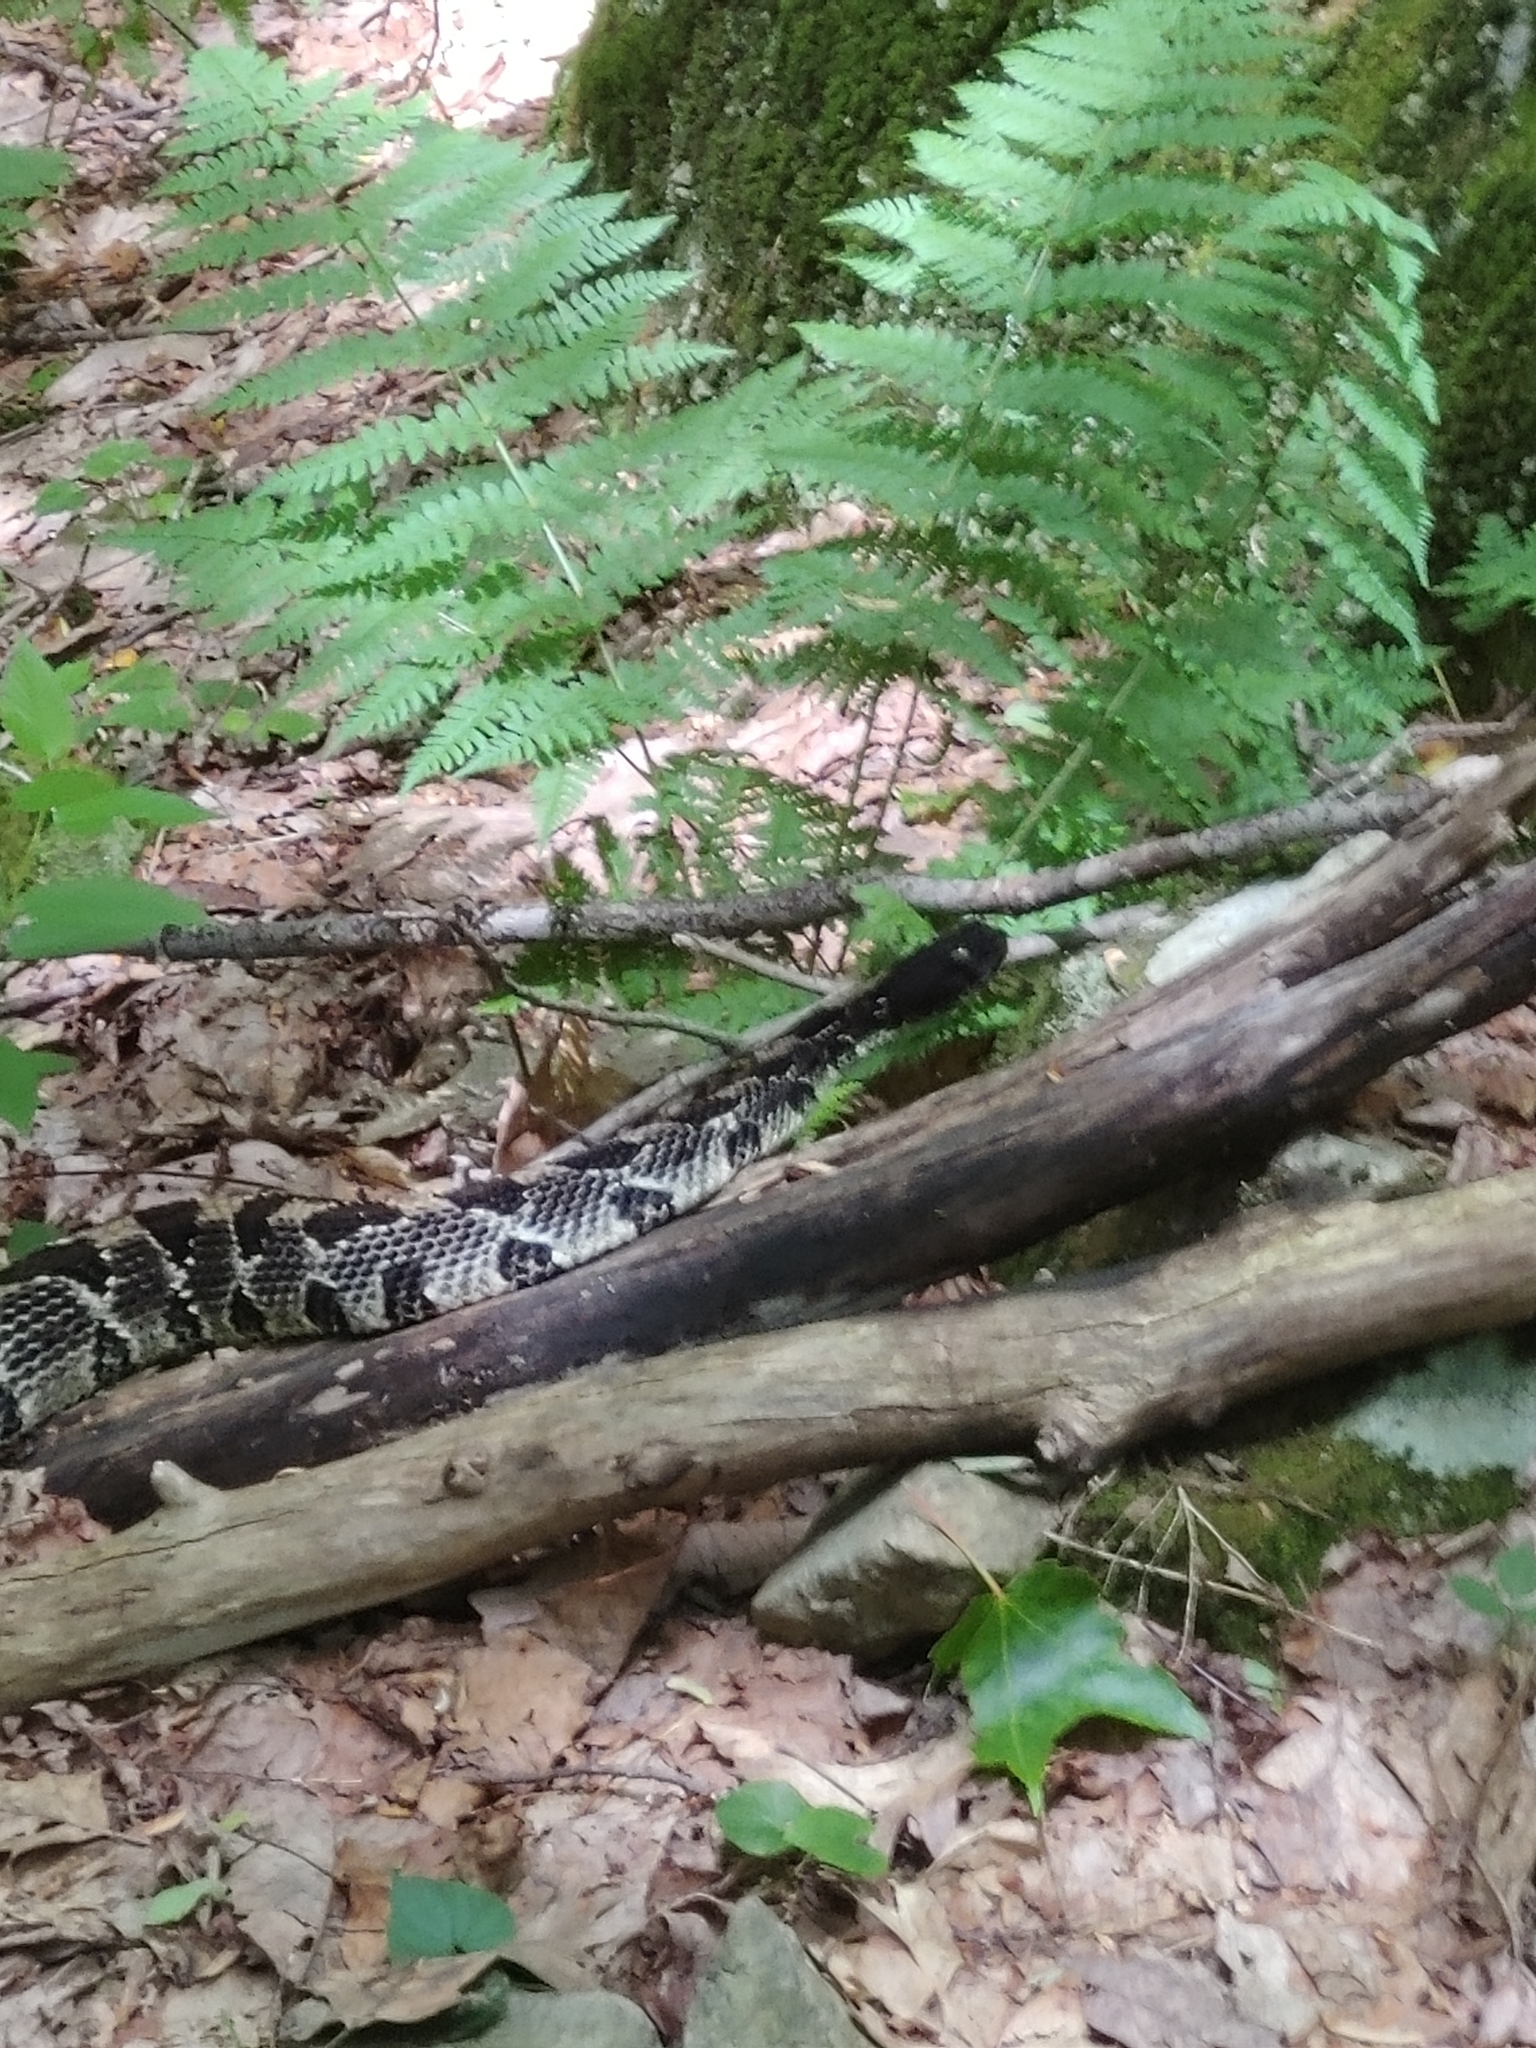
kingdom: Animalia
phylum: Chordata
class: Squamata
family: Viperidae
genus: Crotalus
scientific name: Crotalus horridus
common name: Timber rattlesnake
